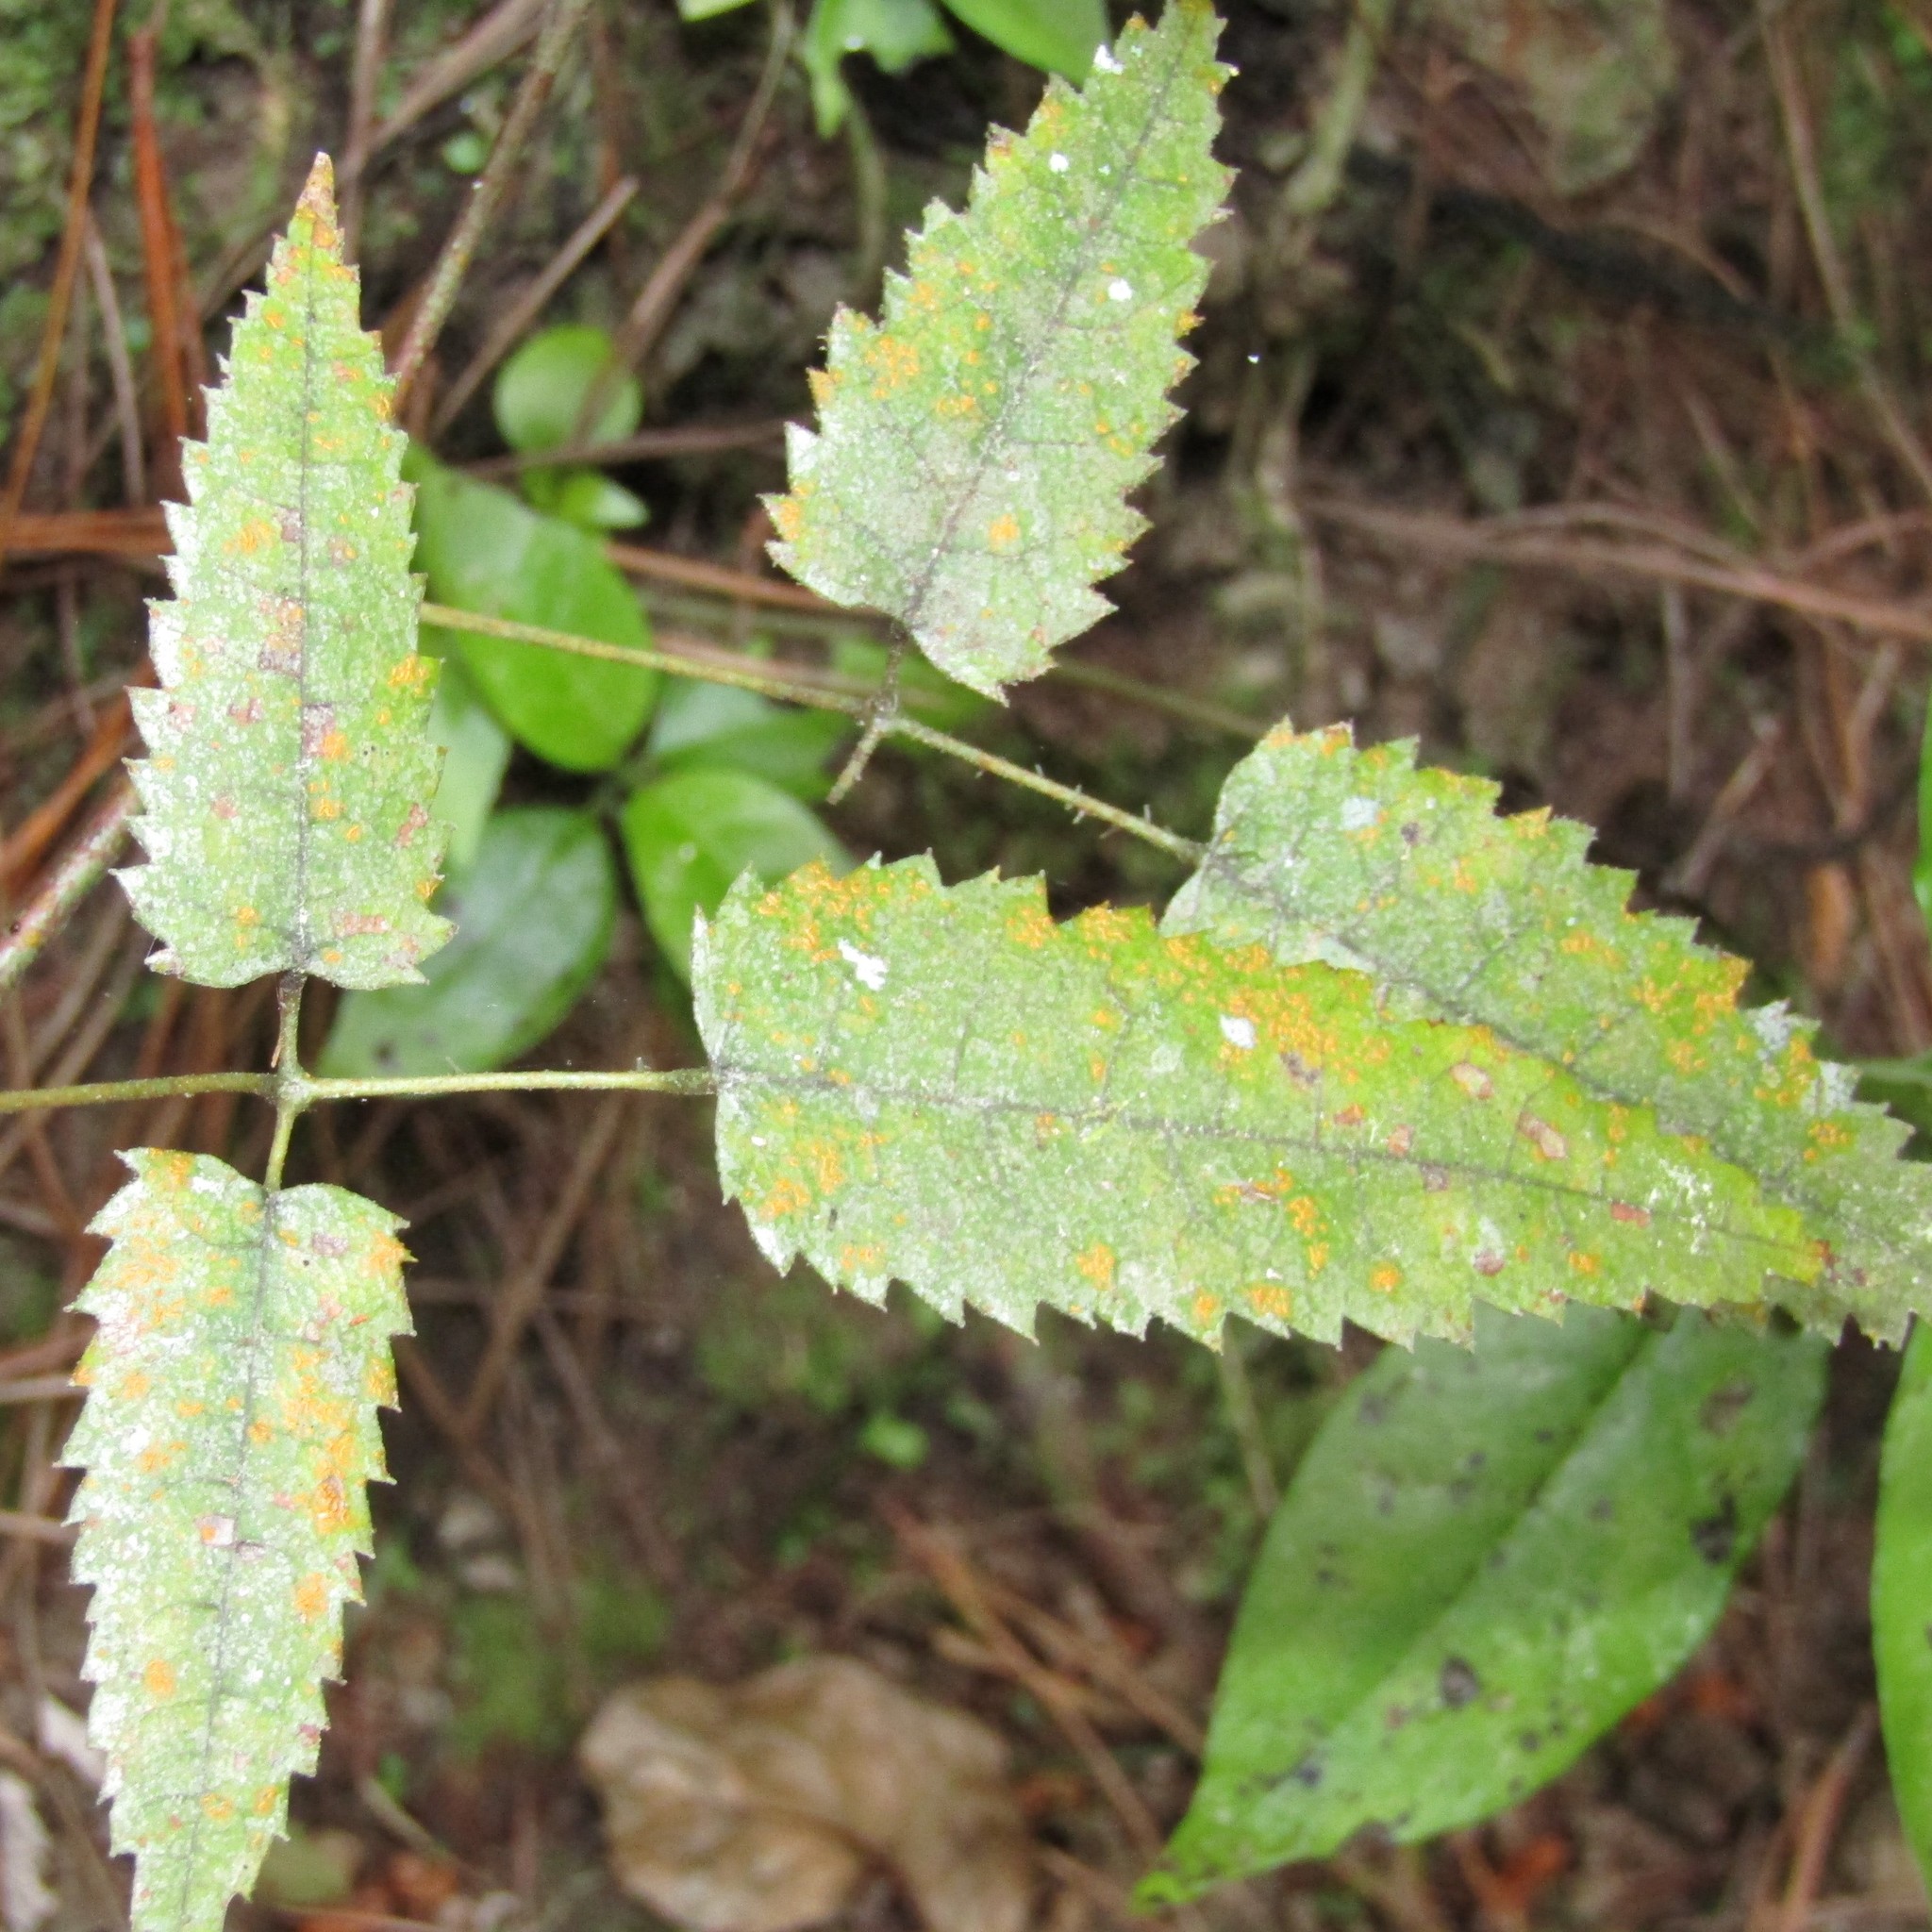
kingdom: Plantae
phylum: Tracheophyta
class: Magnoliopsida
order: Rosales
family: Rosaceae
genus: Rubus
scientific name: Rubus cissoides
